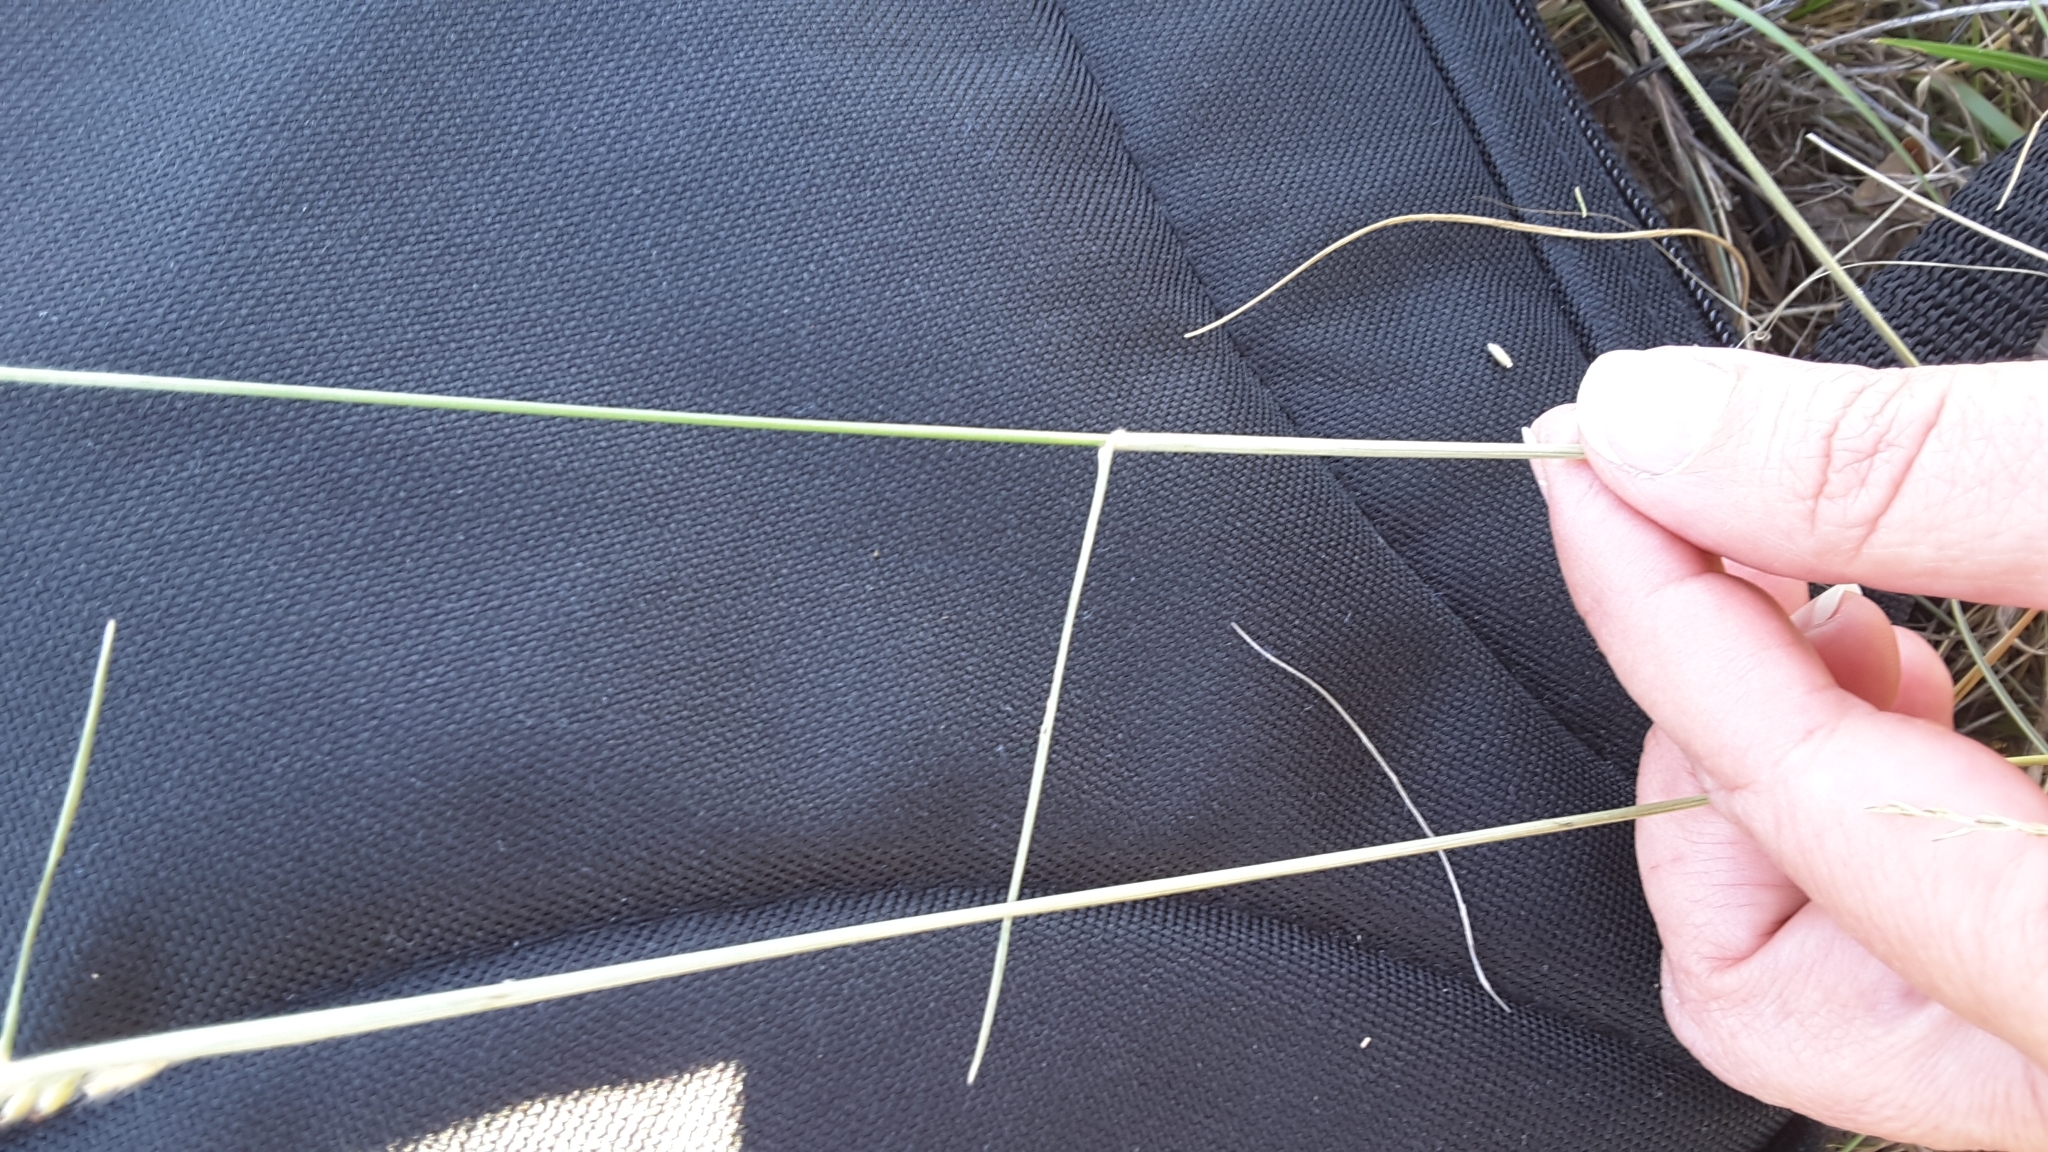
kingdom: Plantae
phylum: Tracheophyta
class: Liliopsida
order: Poales
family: Poaceae
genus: Eriochloa
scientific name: Eriochloa sericea
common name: Texas cup grass
